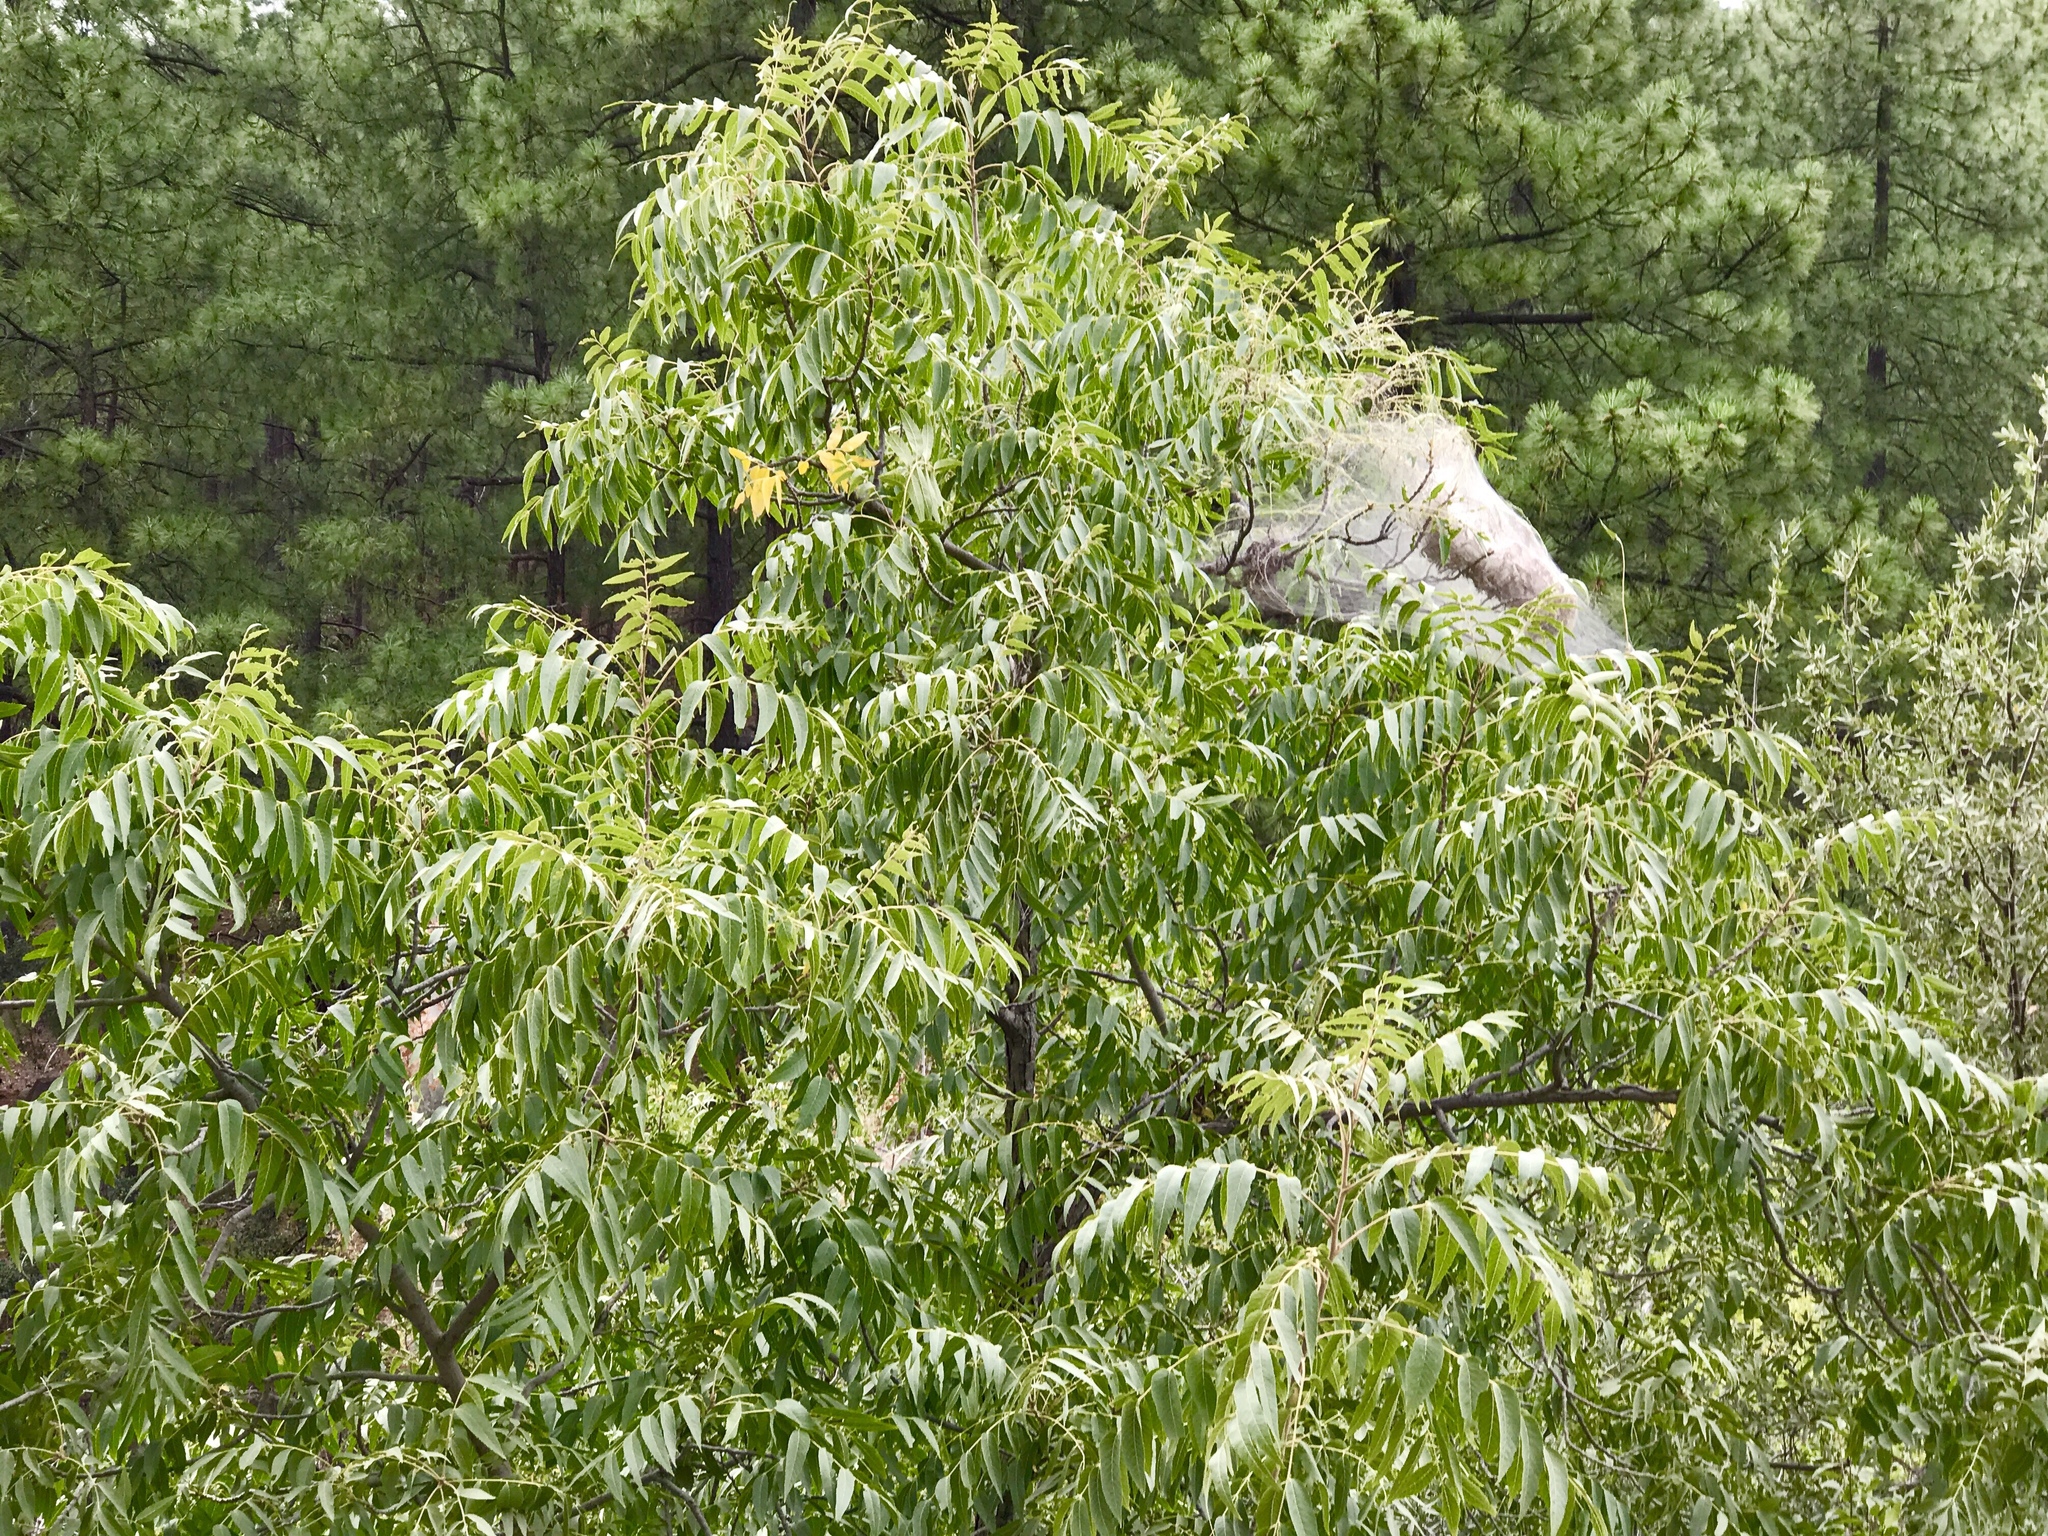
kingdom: Plantae
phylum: Tracheophyta
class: Magnoliopsida
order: Fagales
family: Juglandaceae
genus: Juglans
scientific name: Juglans major
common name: Arizona walnut
